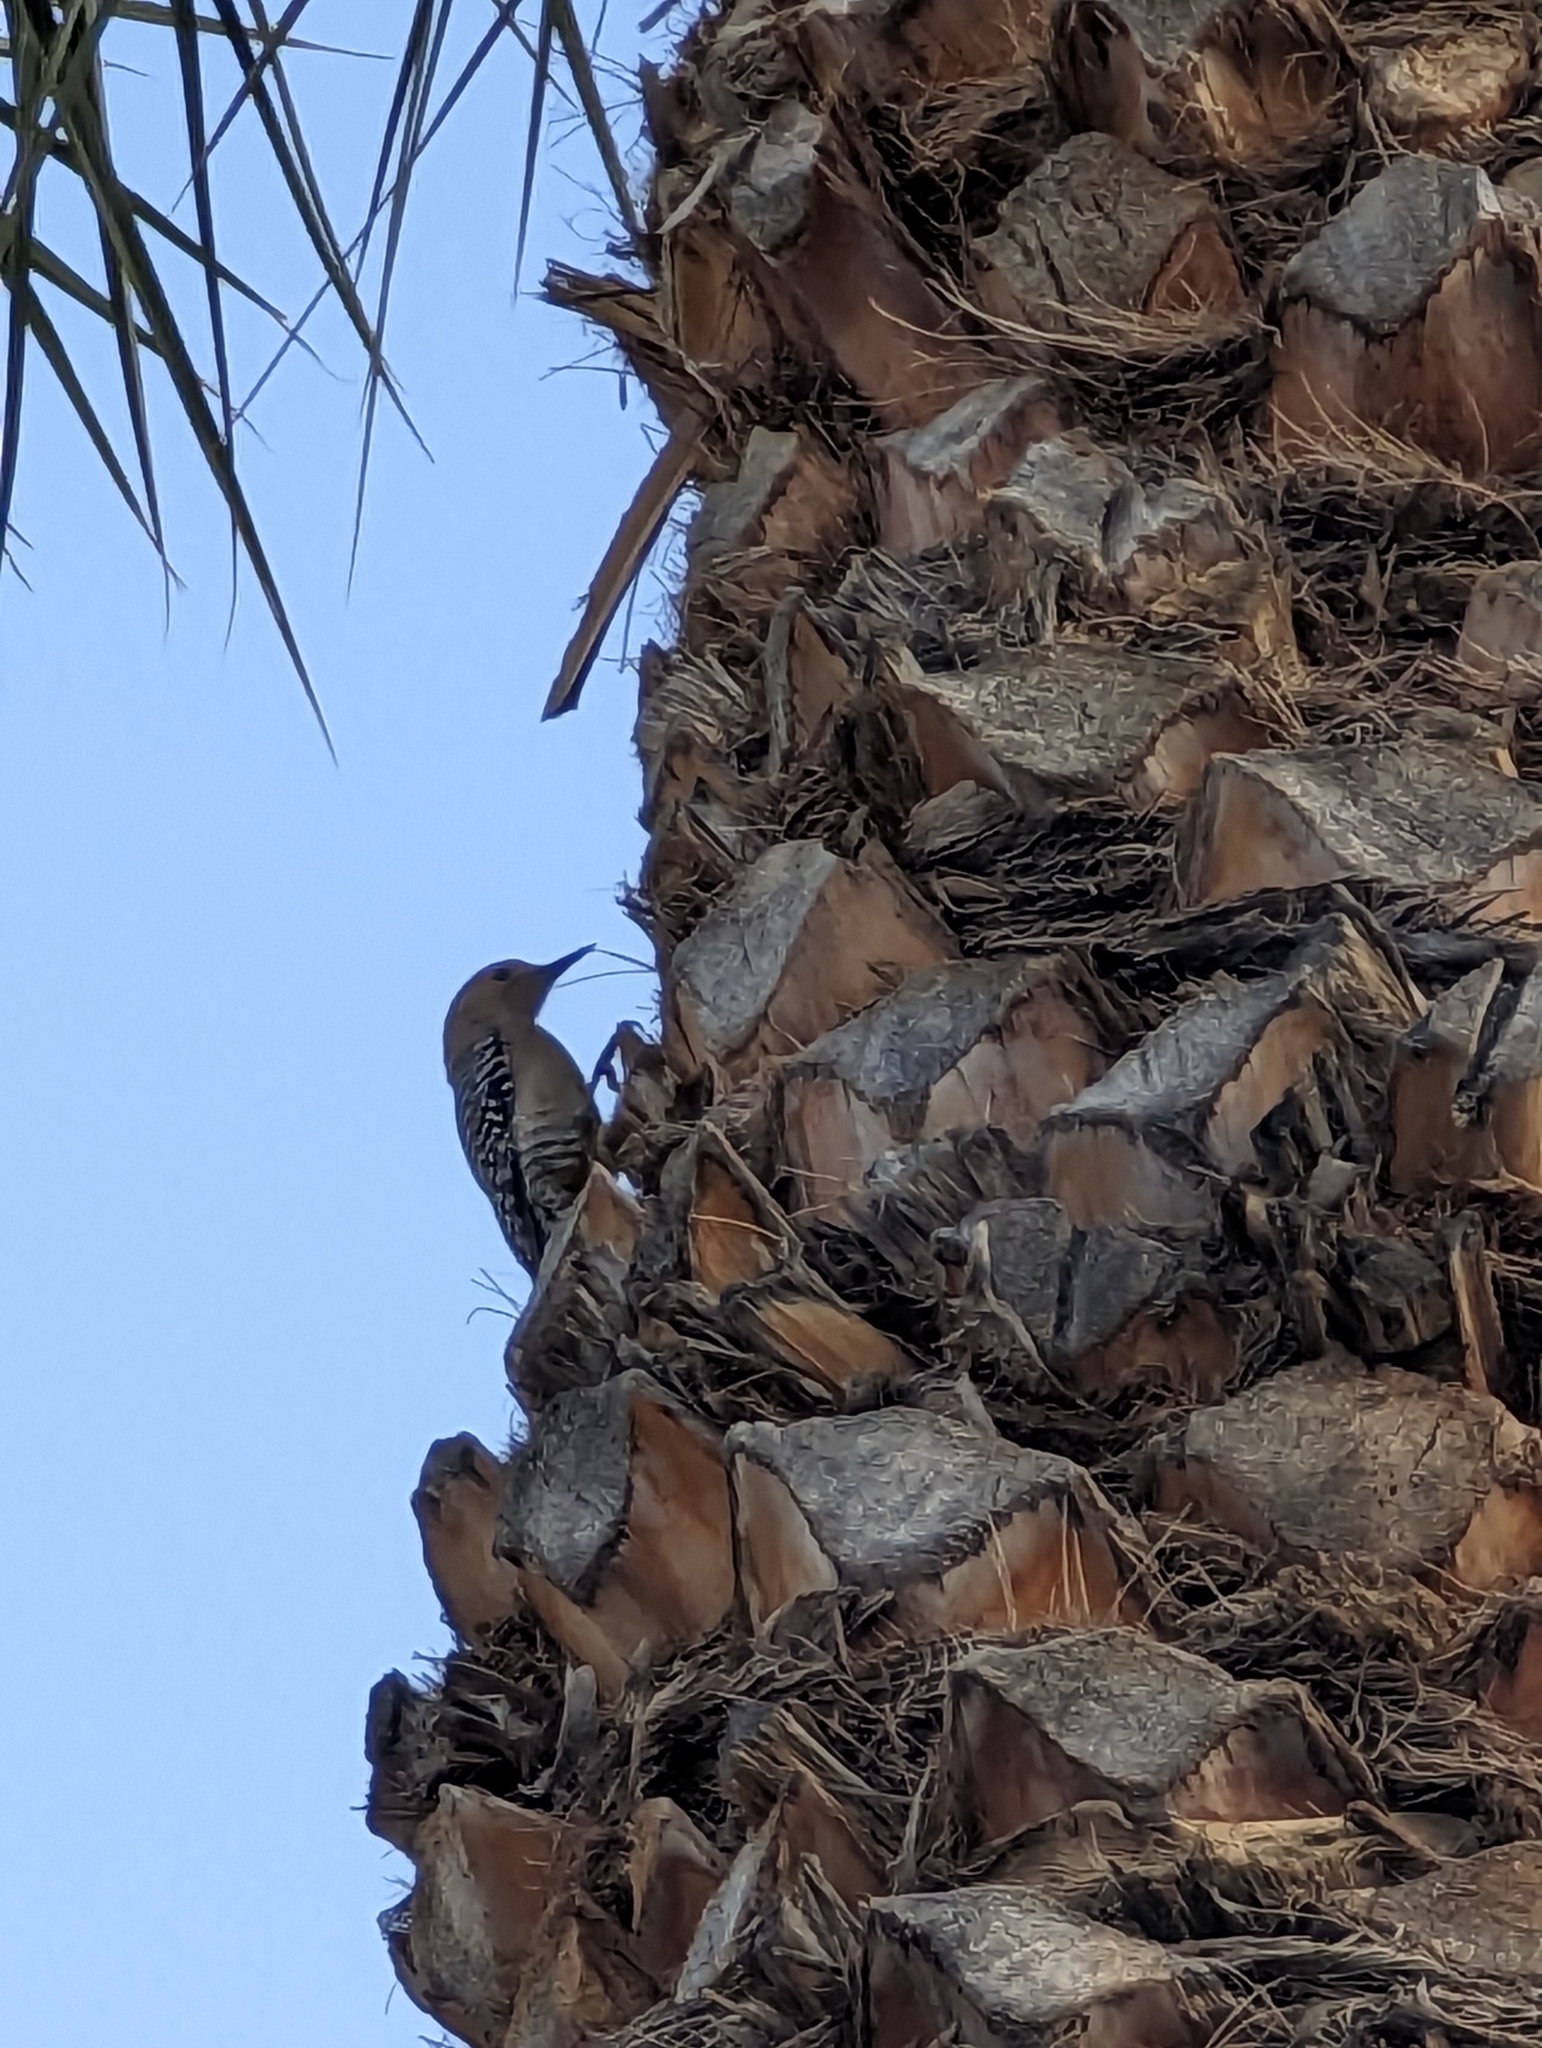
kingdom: Animalia
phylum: Chordata
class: Aves
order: Piciformes
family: Picidae
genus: Melanerpes
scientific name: Melanerpes uropygialis
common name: Gila woodpecker
